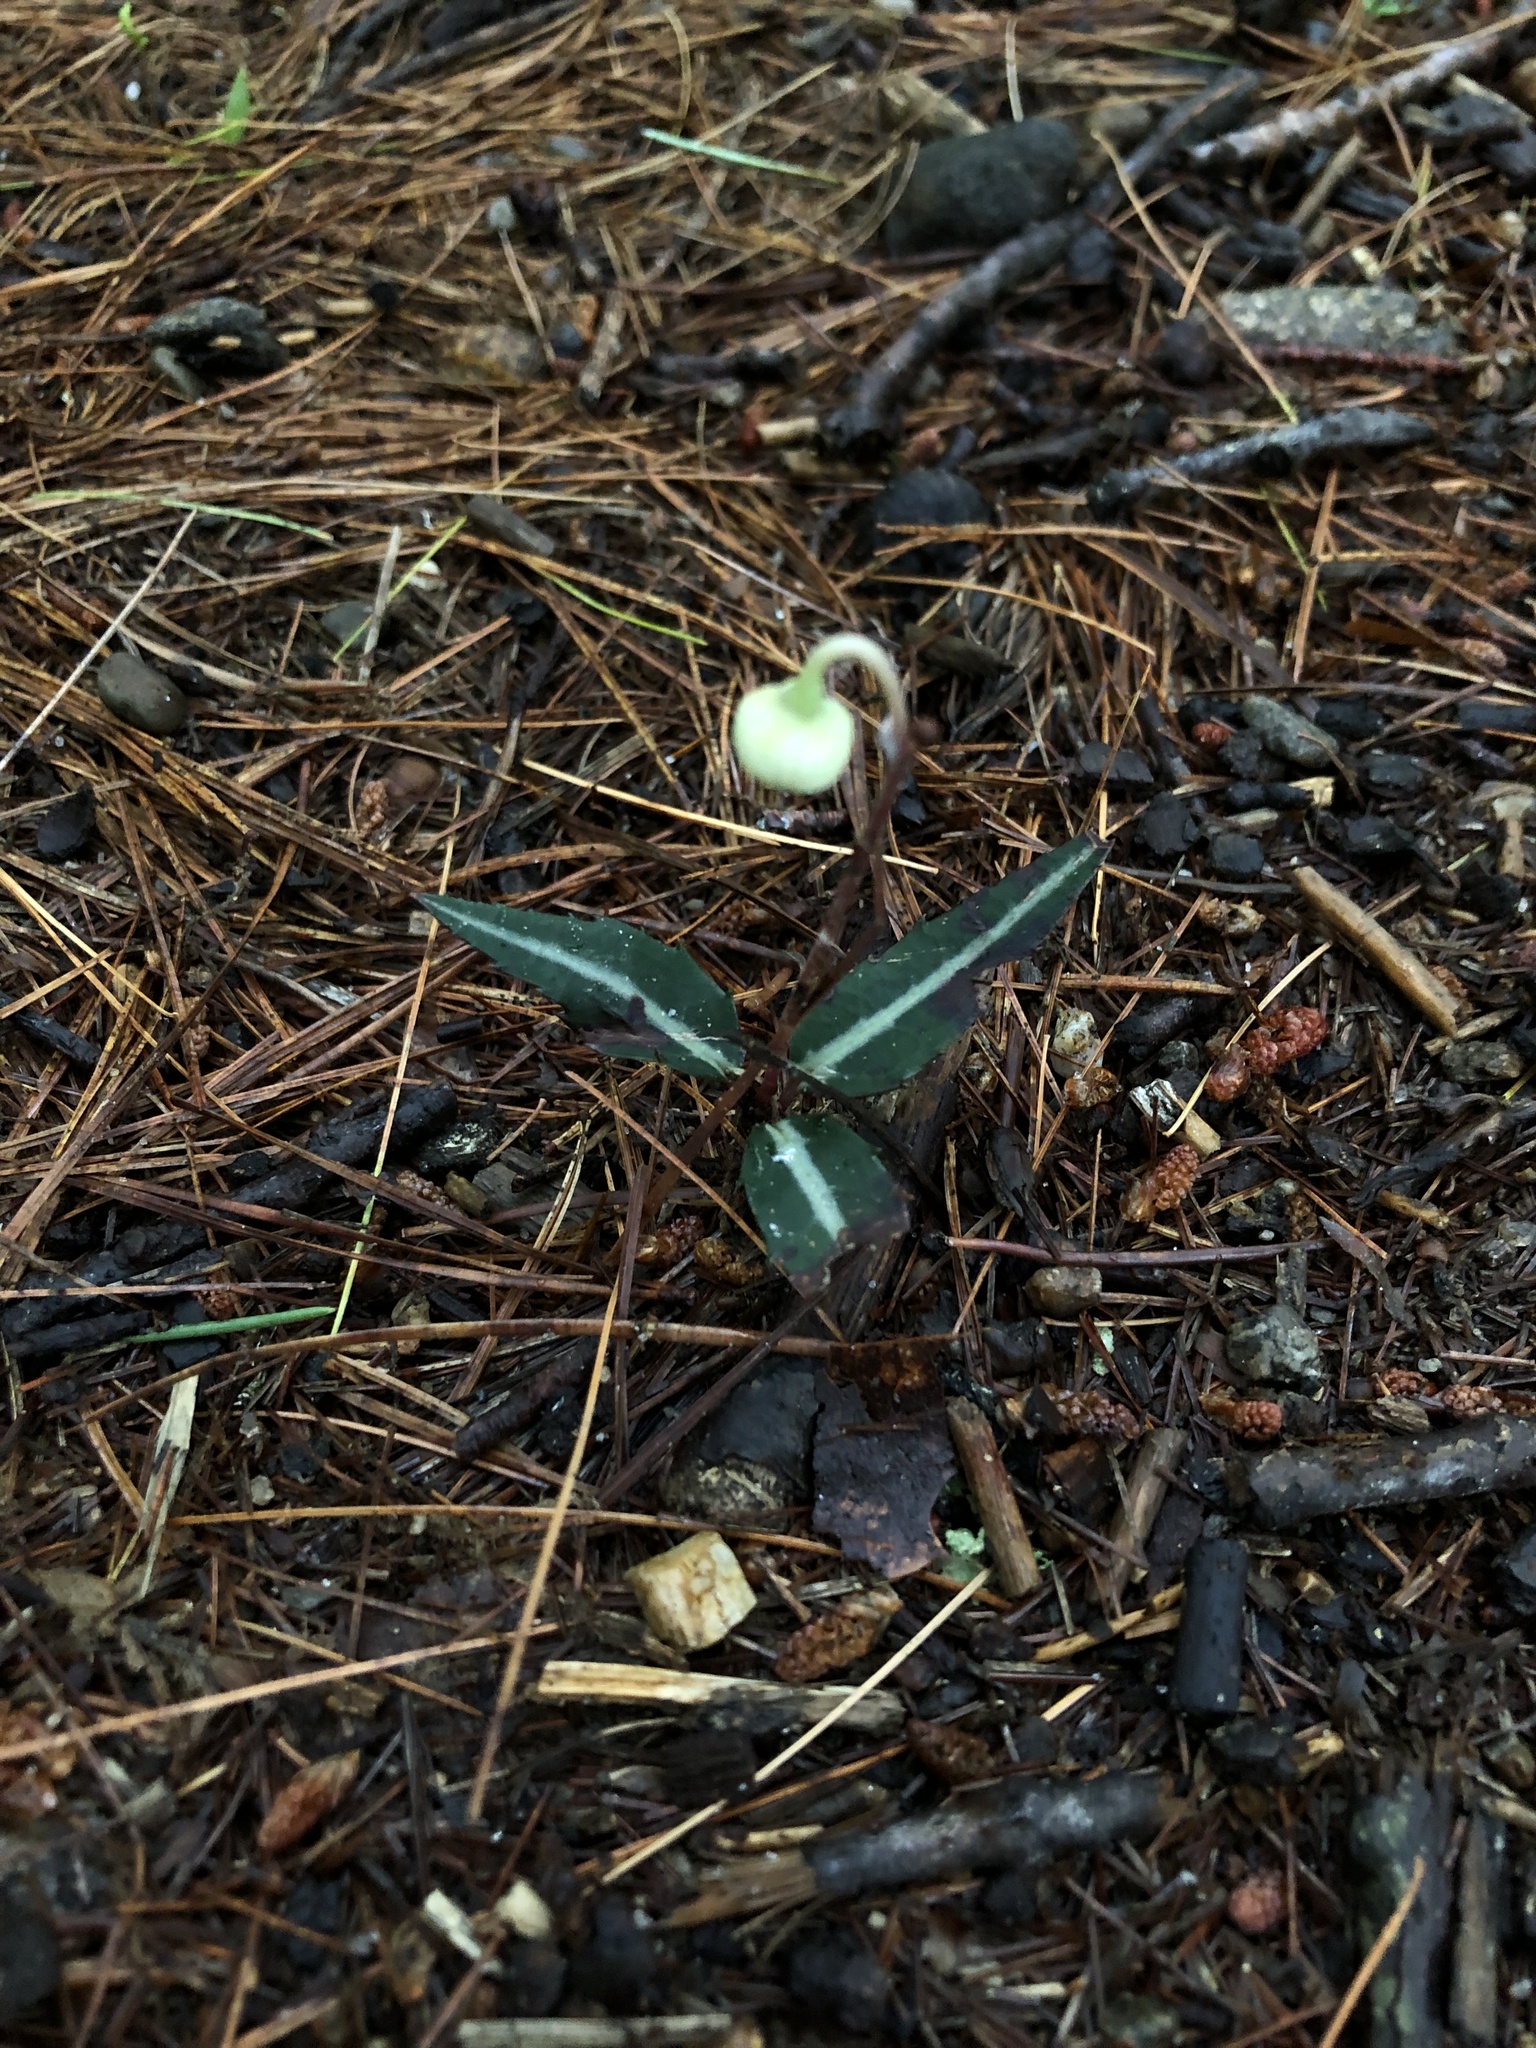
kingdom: Plantae
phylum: Tracheophyta
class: Magnoliopsida
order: Ericales
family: Ericaceae
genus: Chimaphila
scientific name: Chimaphila maculata
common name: Spotted pipsissewa
